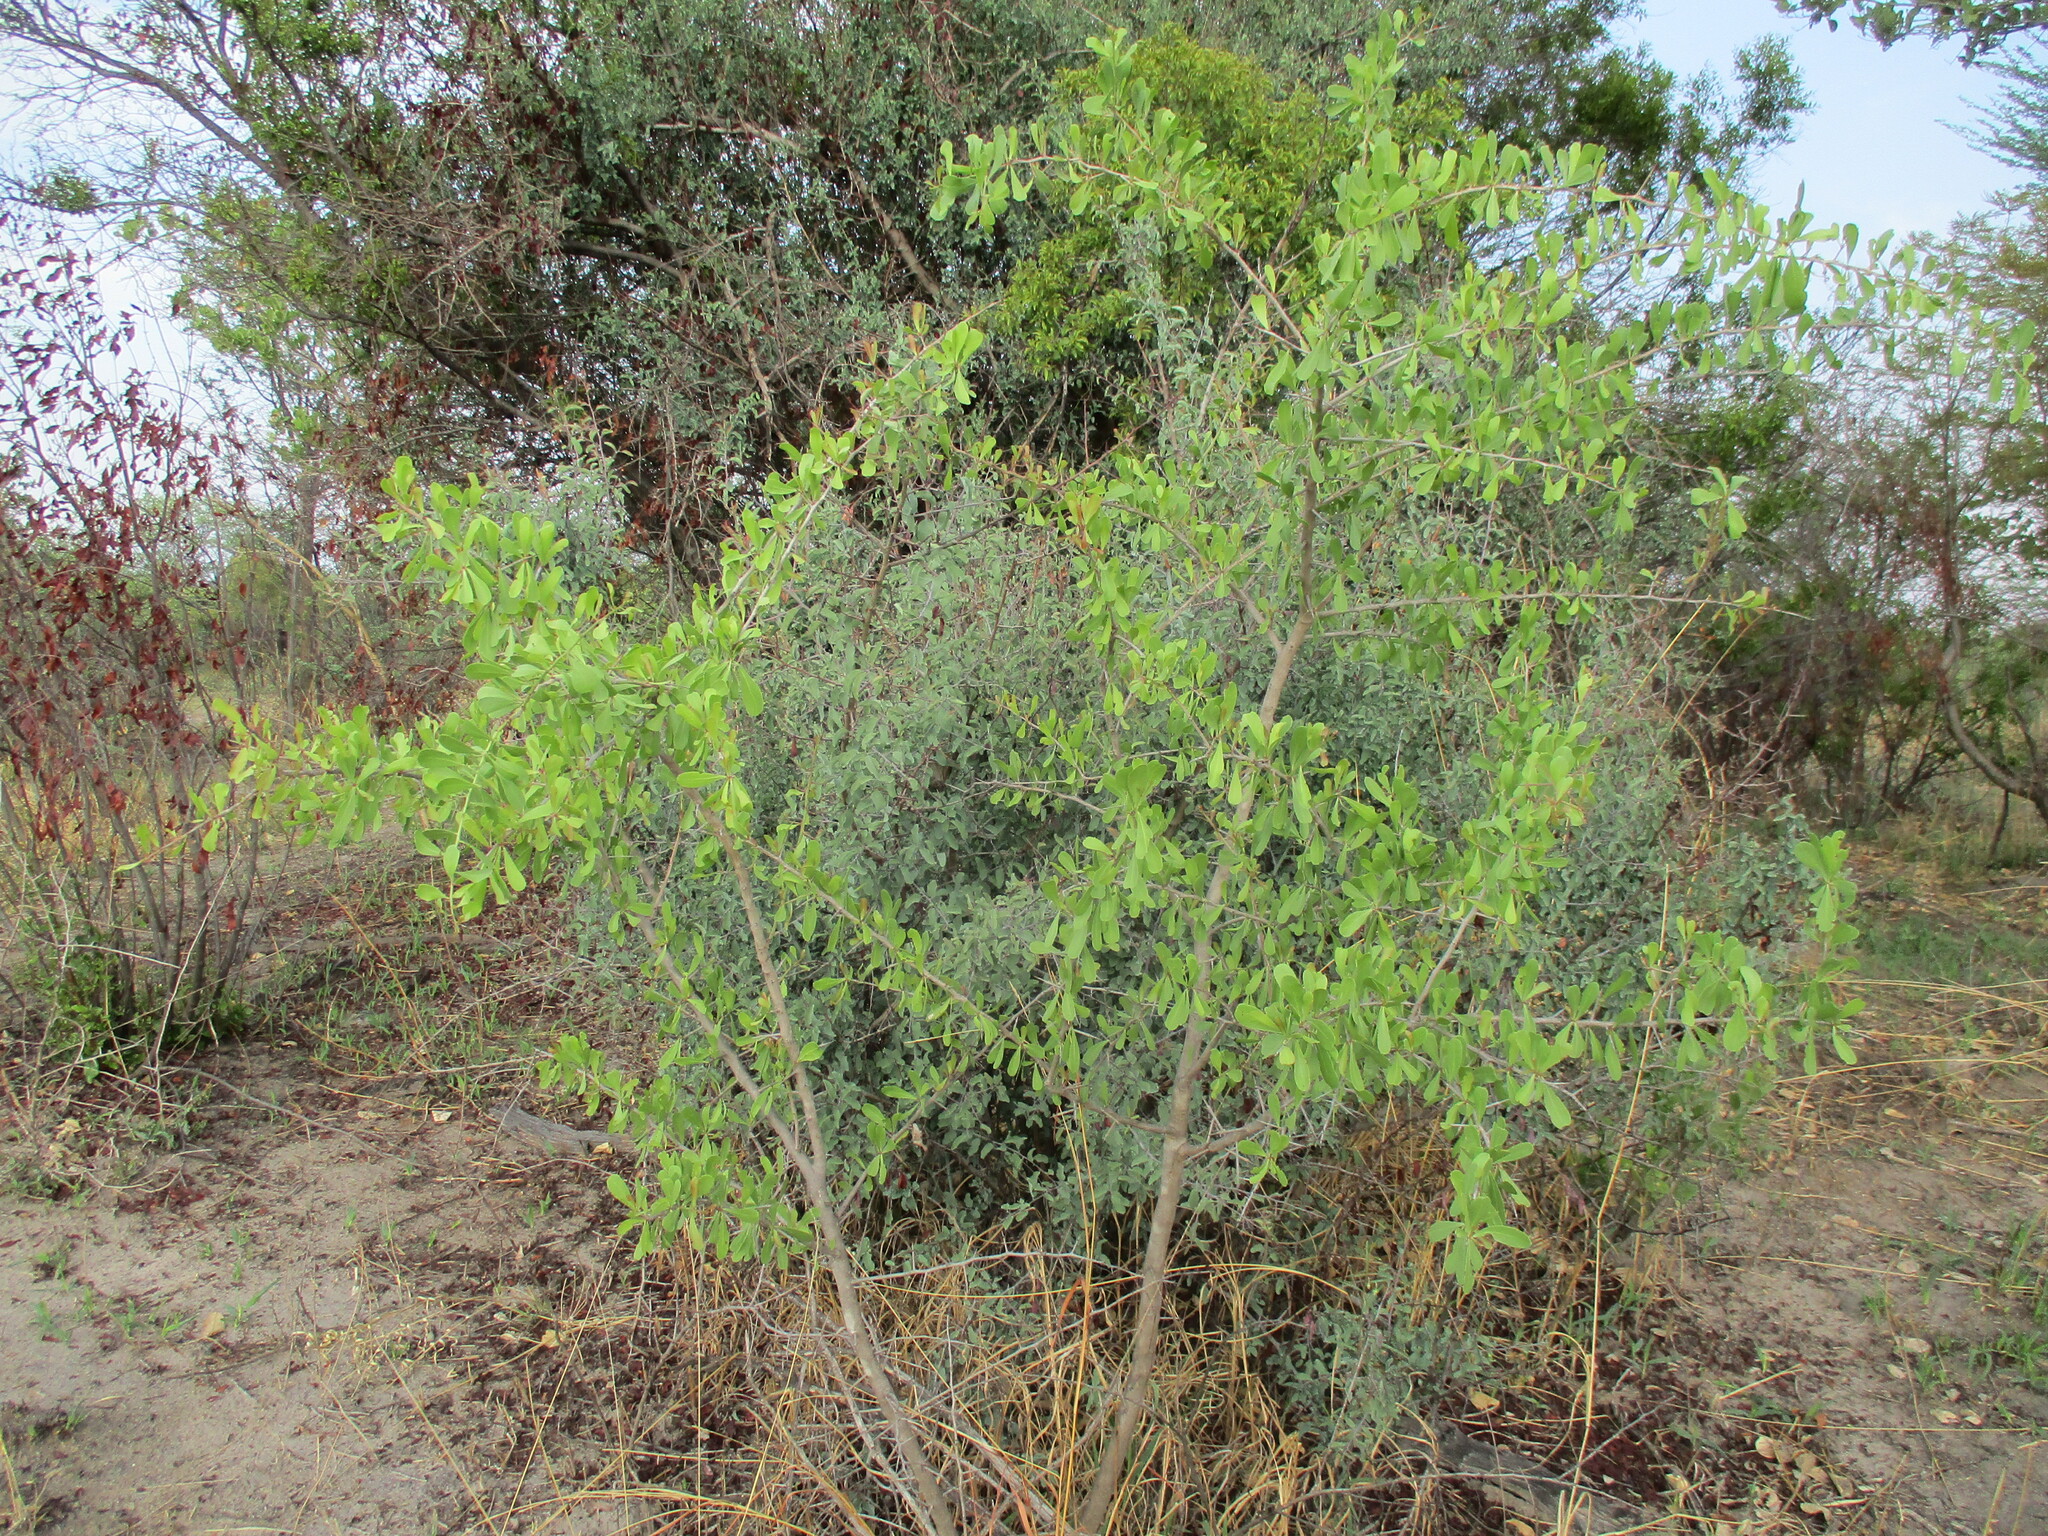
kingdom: Plantae
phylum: Tracheophyta
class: Magnoliopsida
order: Celastrales
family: Celastraceae
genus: Gymnosporia
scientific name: Gymnosporia senegalensis
